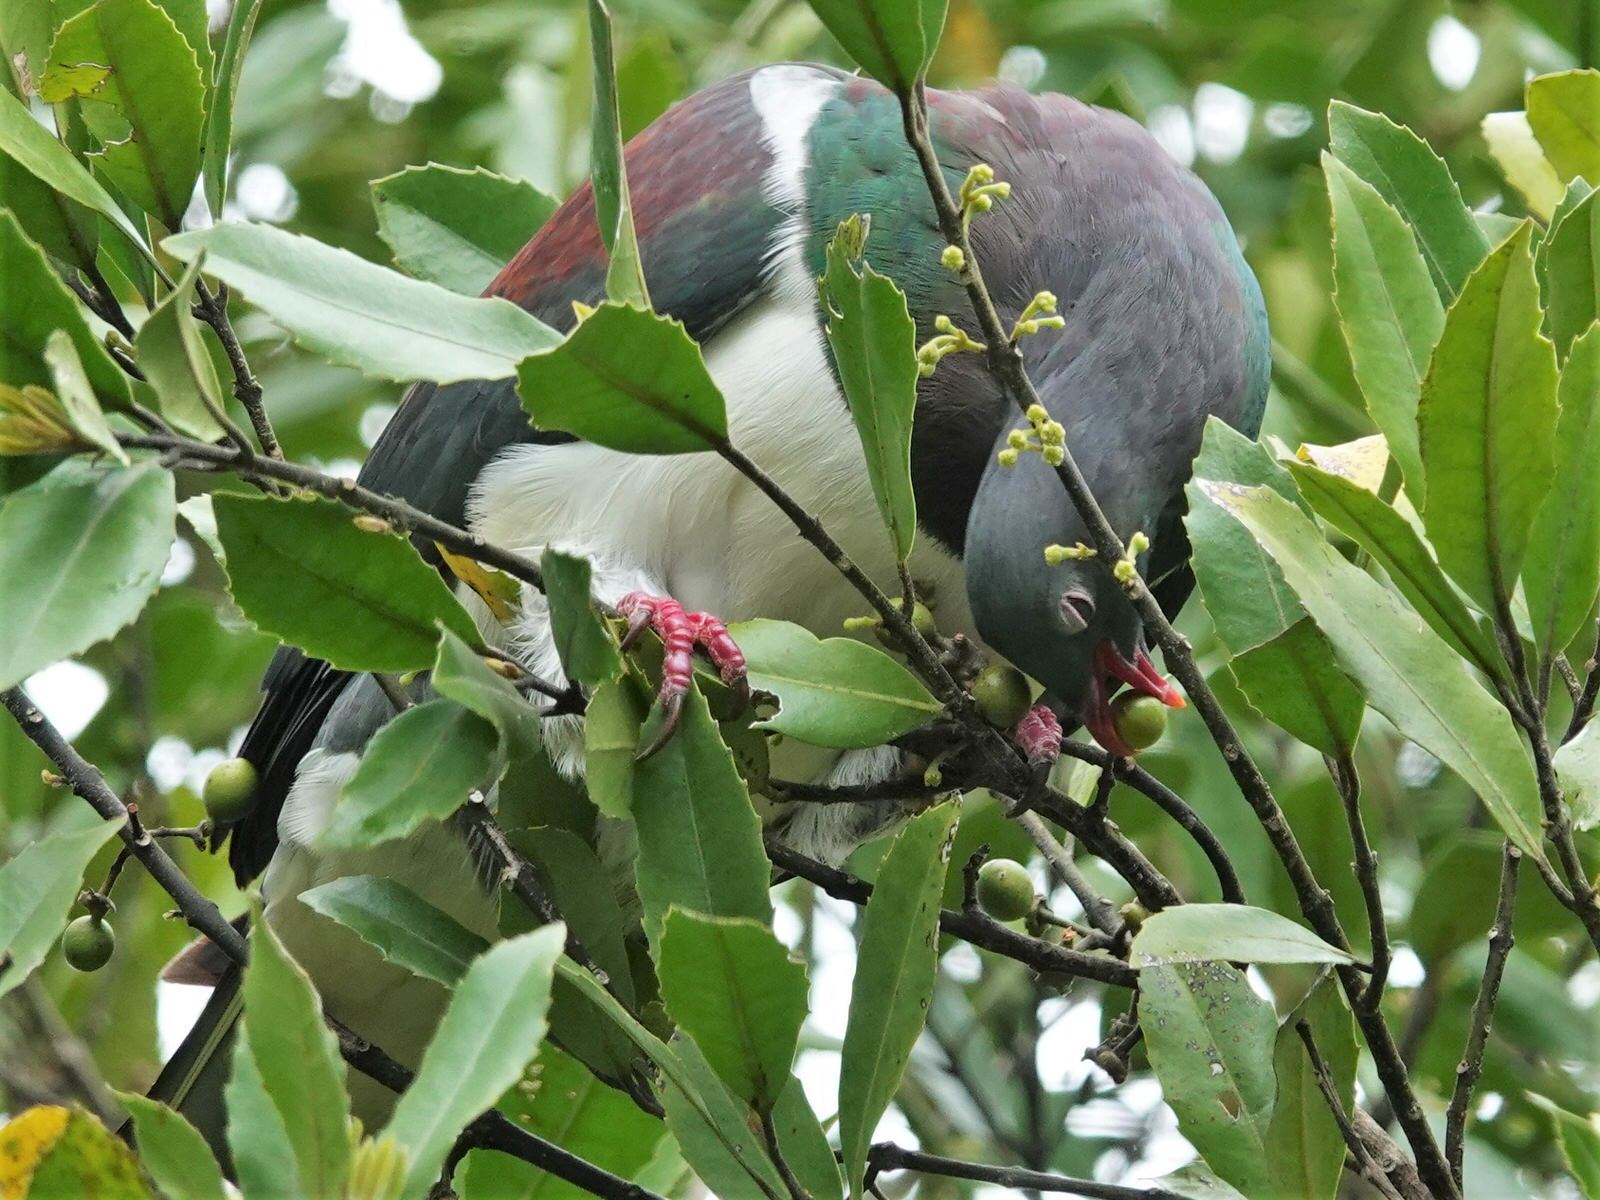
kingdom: Animalia
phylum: Chordata
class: Aves
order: Columbiformes
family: Columbidae
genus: Hemiphaga
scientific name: Hemiphaga novaeseelandiae
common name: New zealand pigeon
